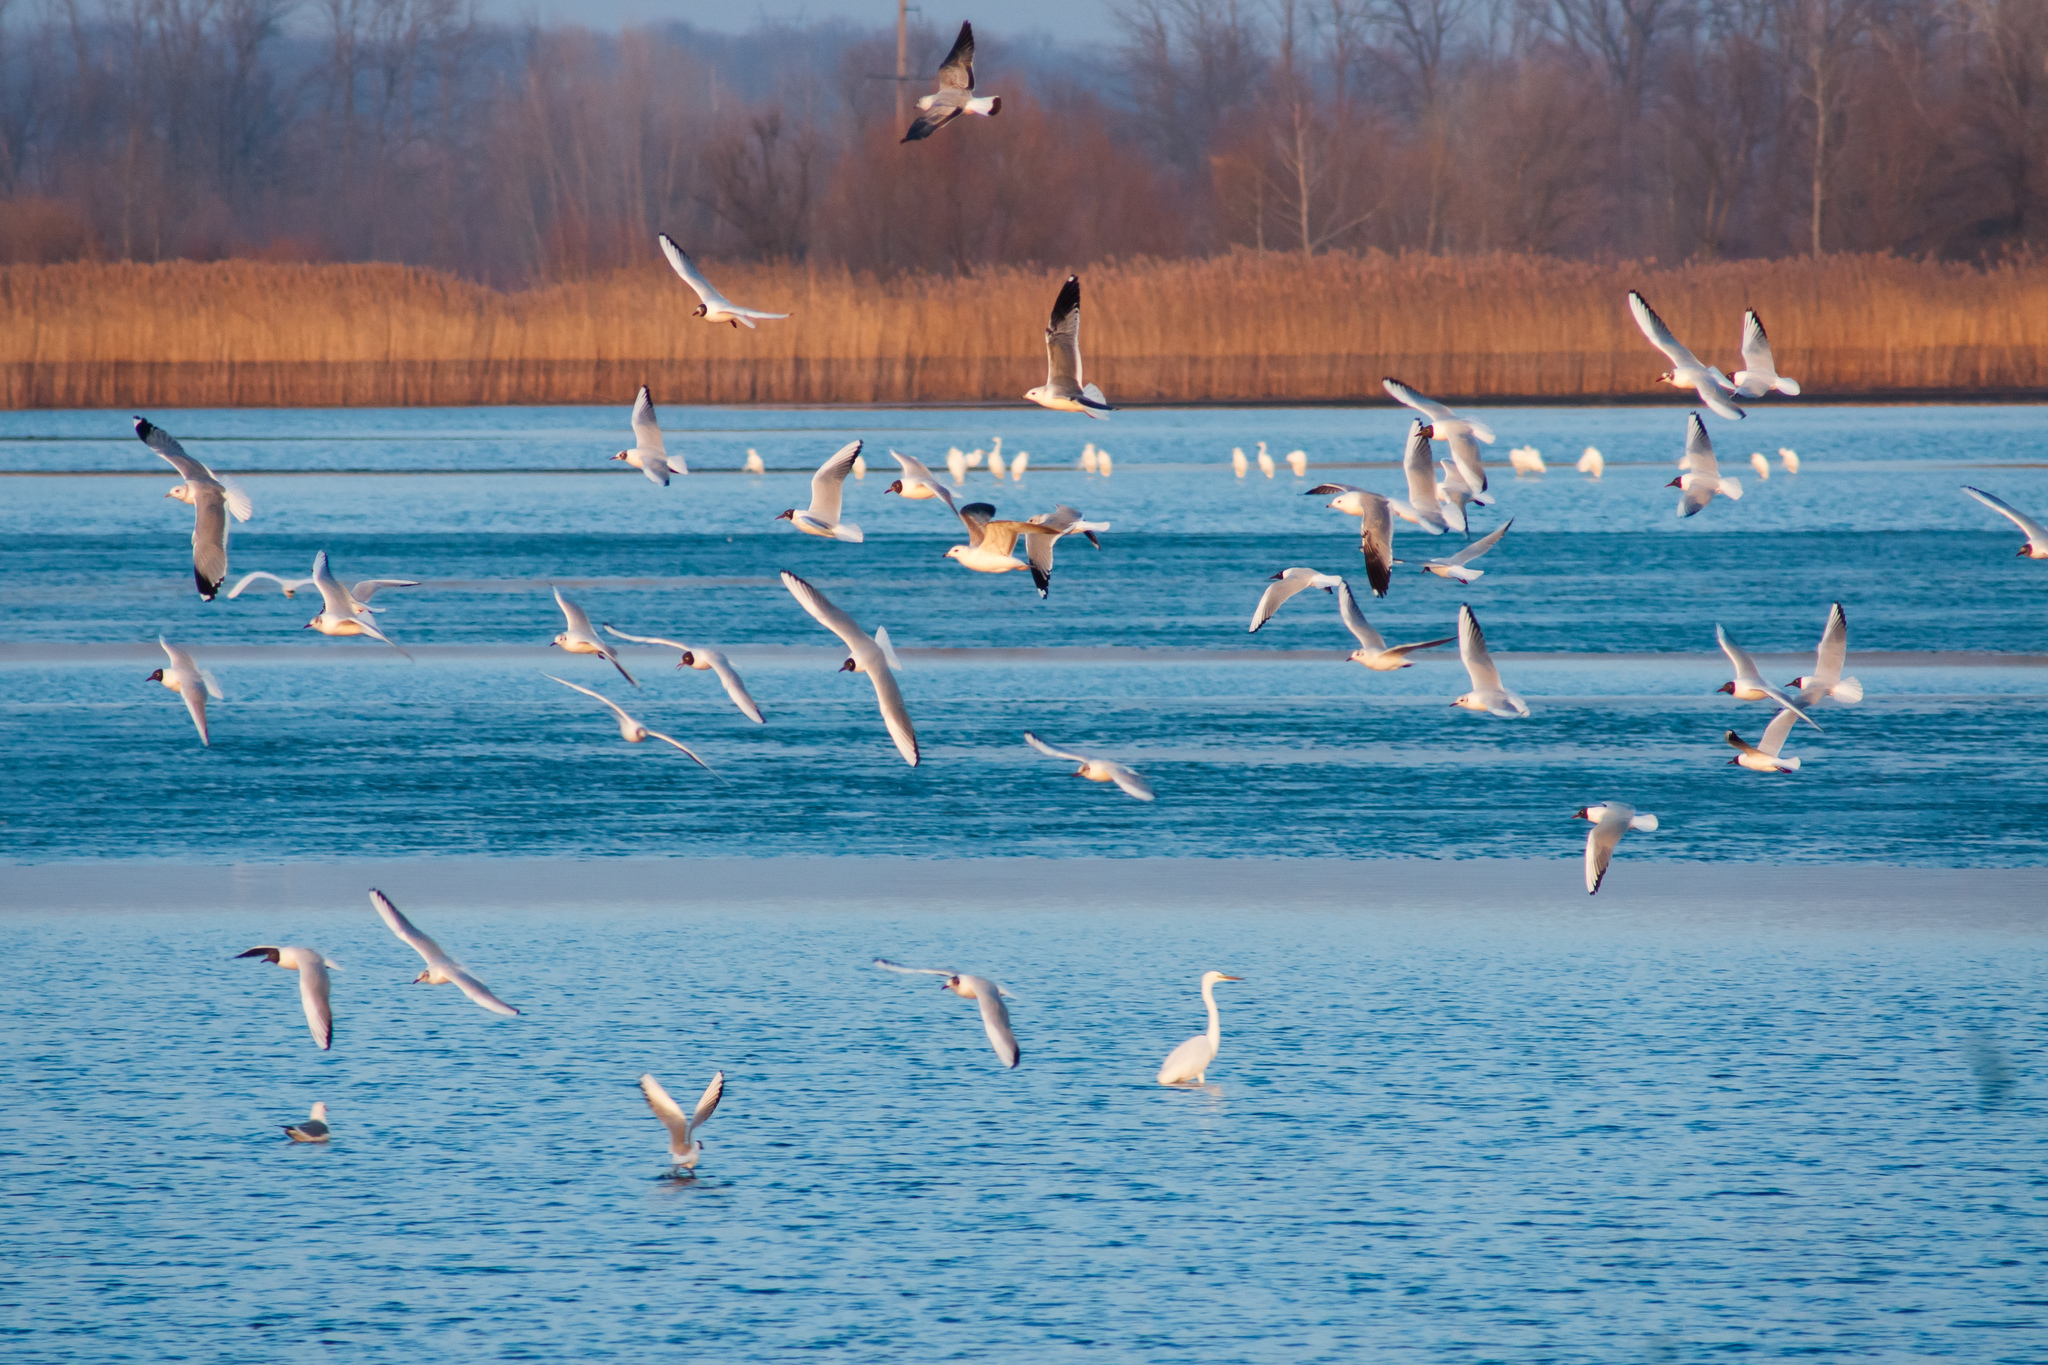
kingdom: Animalia
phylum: Chordata
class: Aves
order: Charadriiformes
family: Laridae
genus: Chroicocephalus
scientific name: Chroicocephalus ridibundus
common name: Black-headed gull
